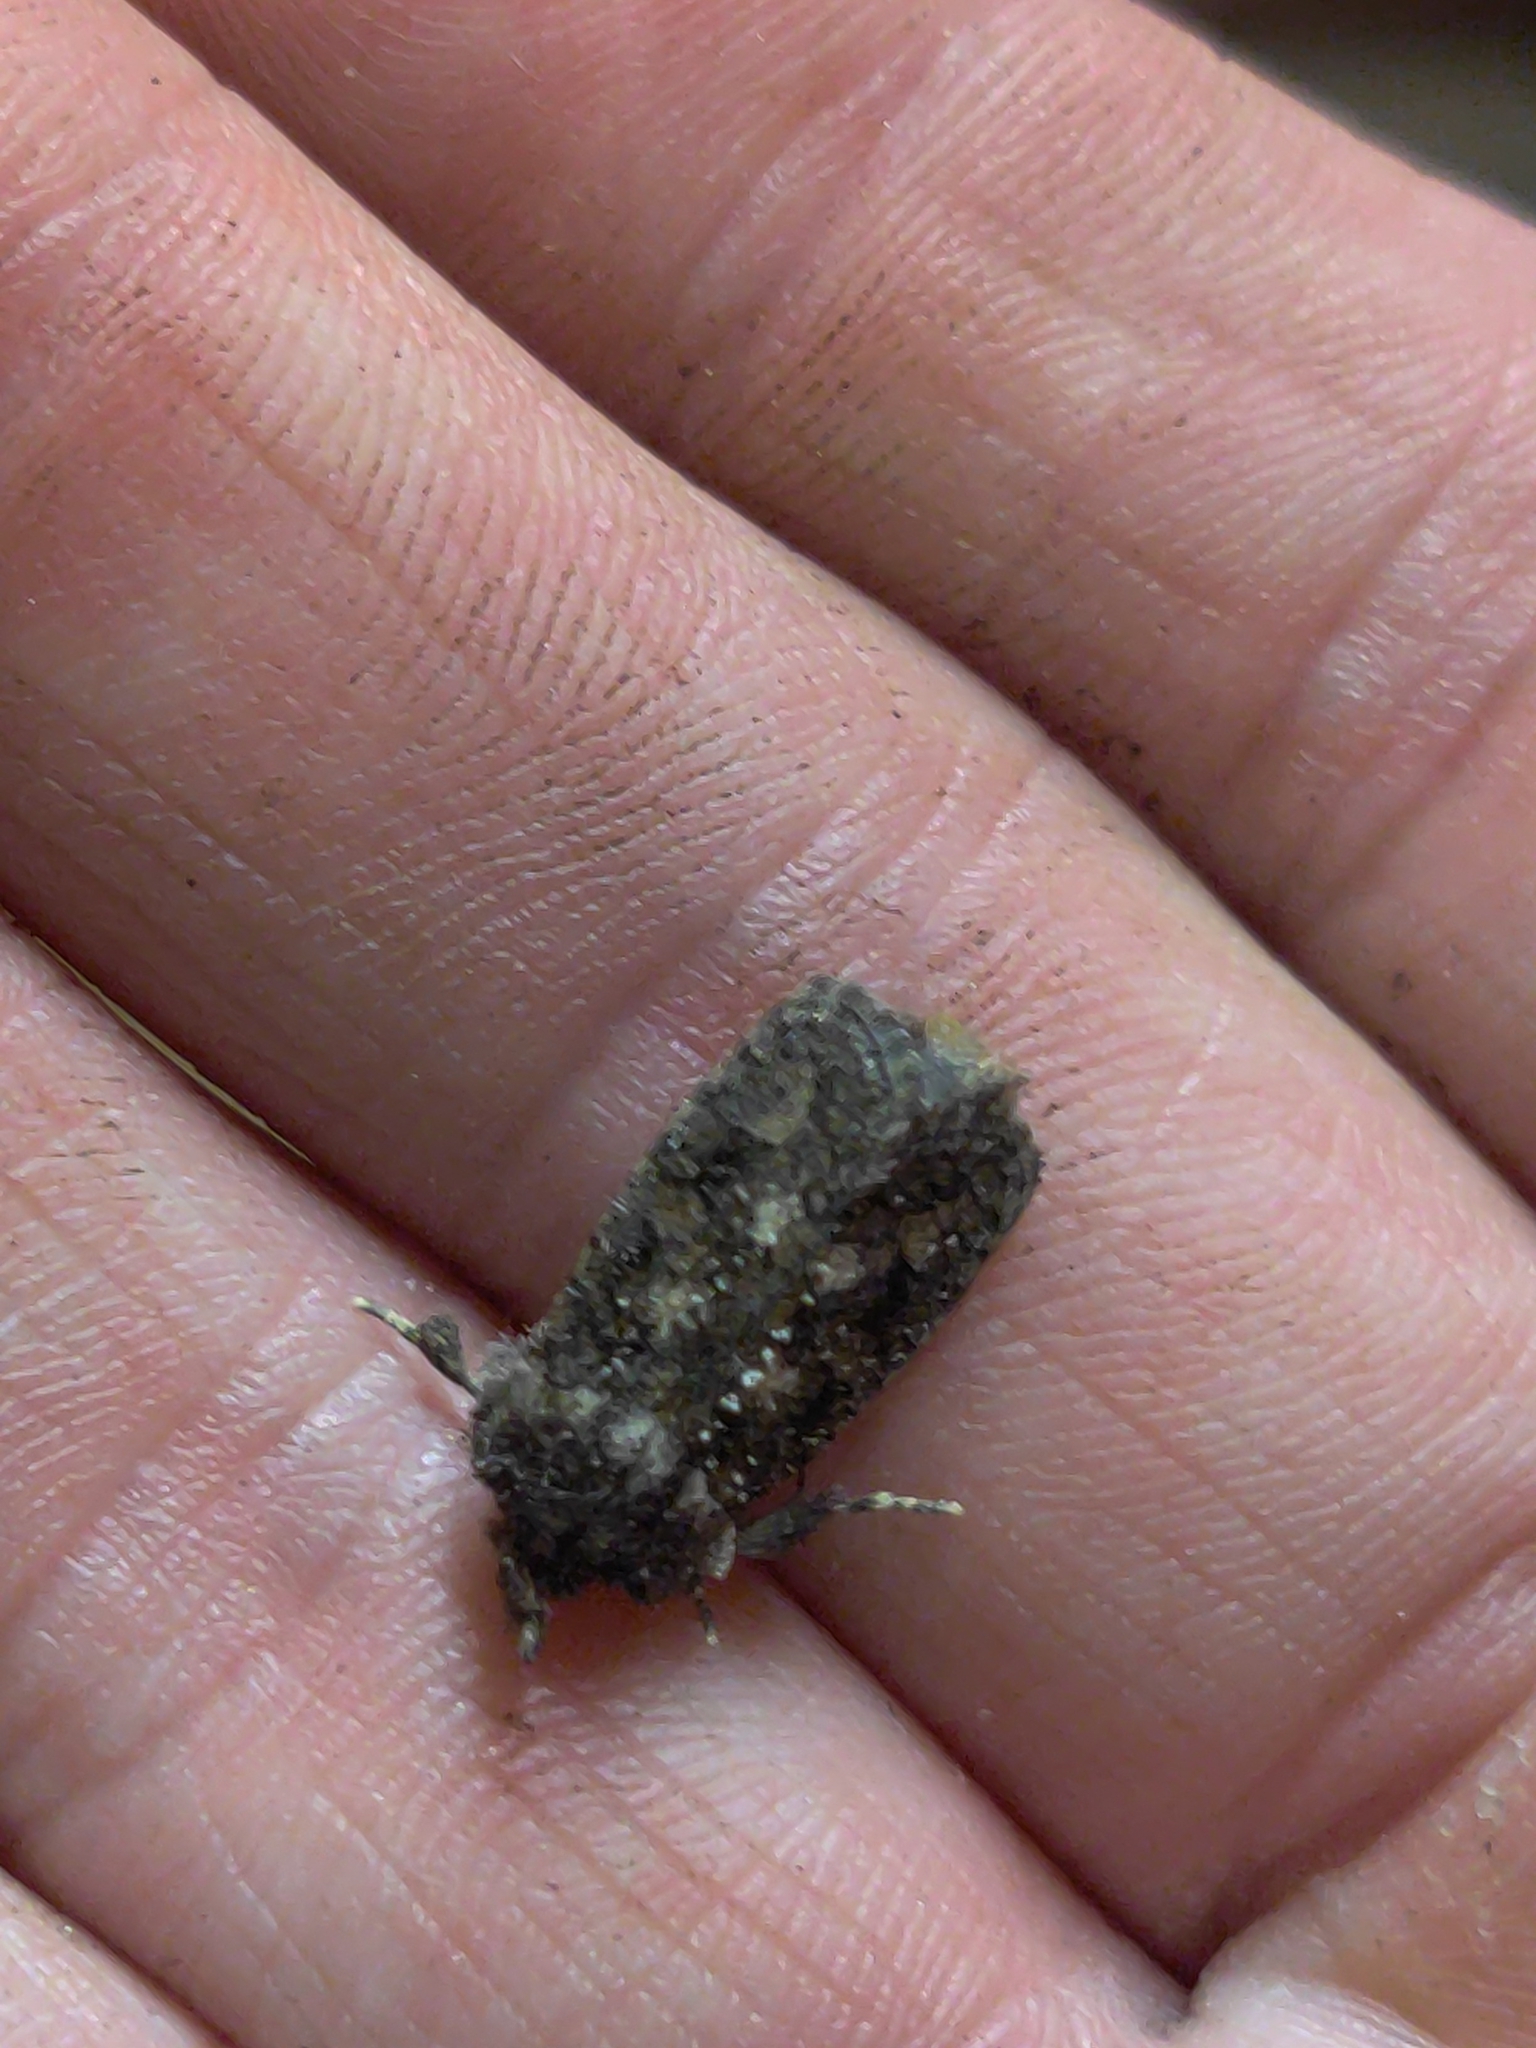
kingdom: Animalia
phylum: Arthropoda
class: Insecta
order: Lepidoptera
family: Tineidae
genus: Acrolophus
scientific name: Acrolophus arcanella
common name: Arcane grass tubeworm moth
